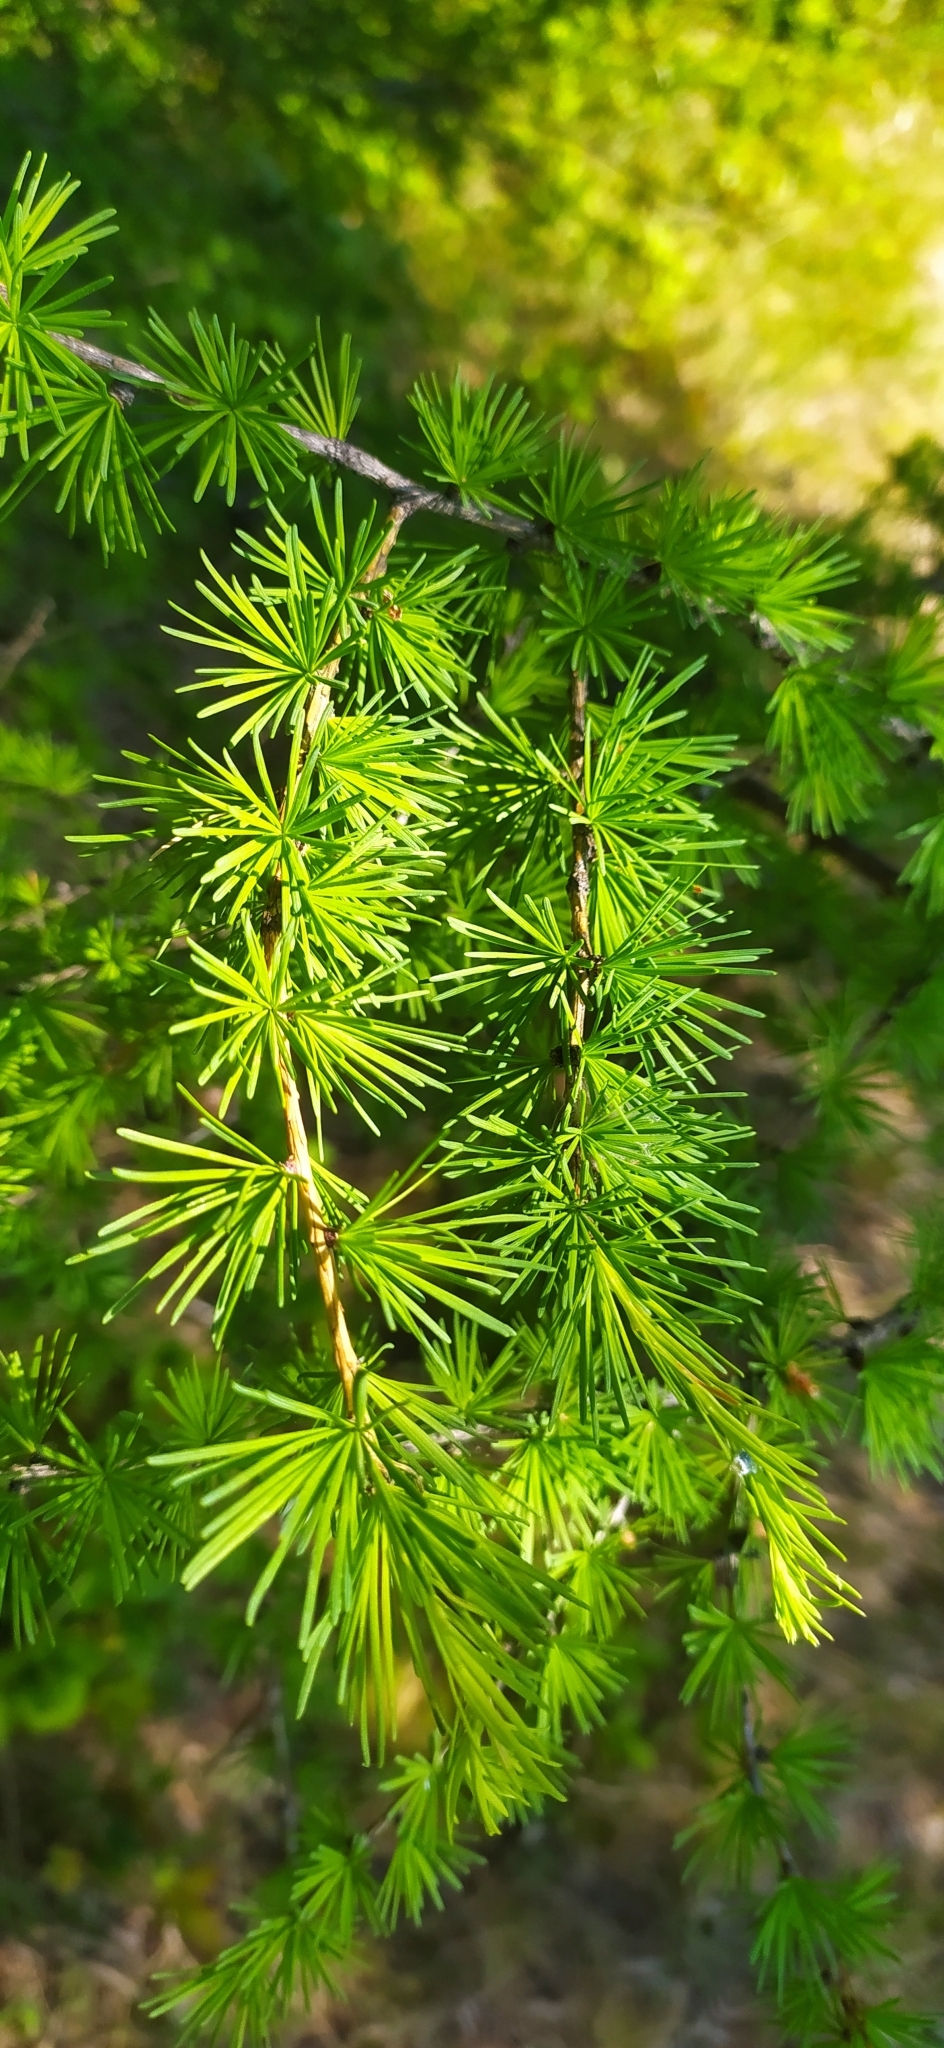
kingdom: Plantae
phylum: Tracheophyta
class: Pinopsida
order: Pinales
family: Pinaceae
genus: Larix
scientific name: Larix sibirica
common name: Siberian larch
